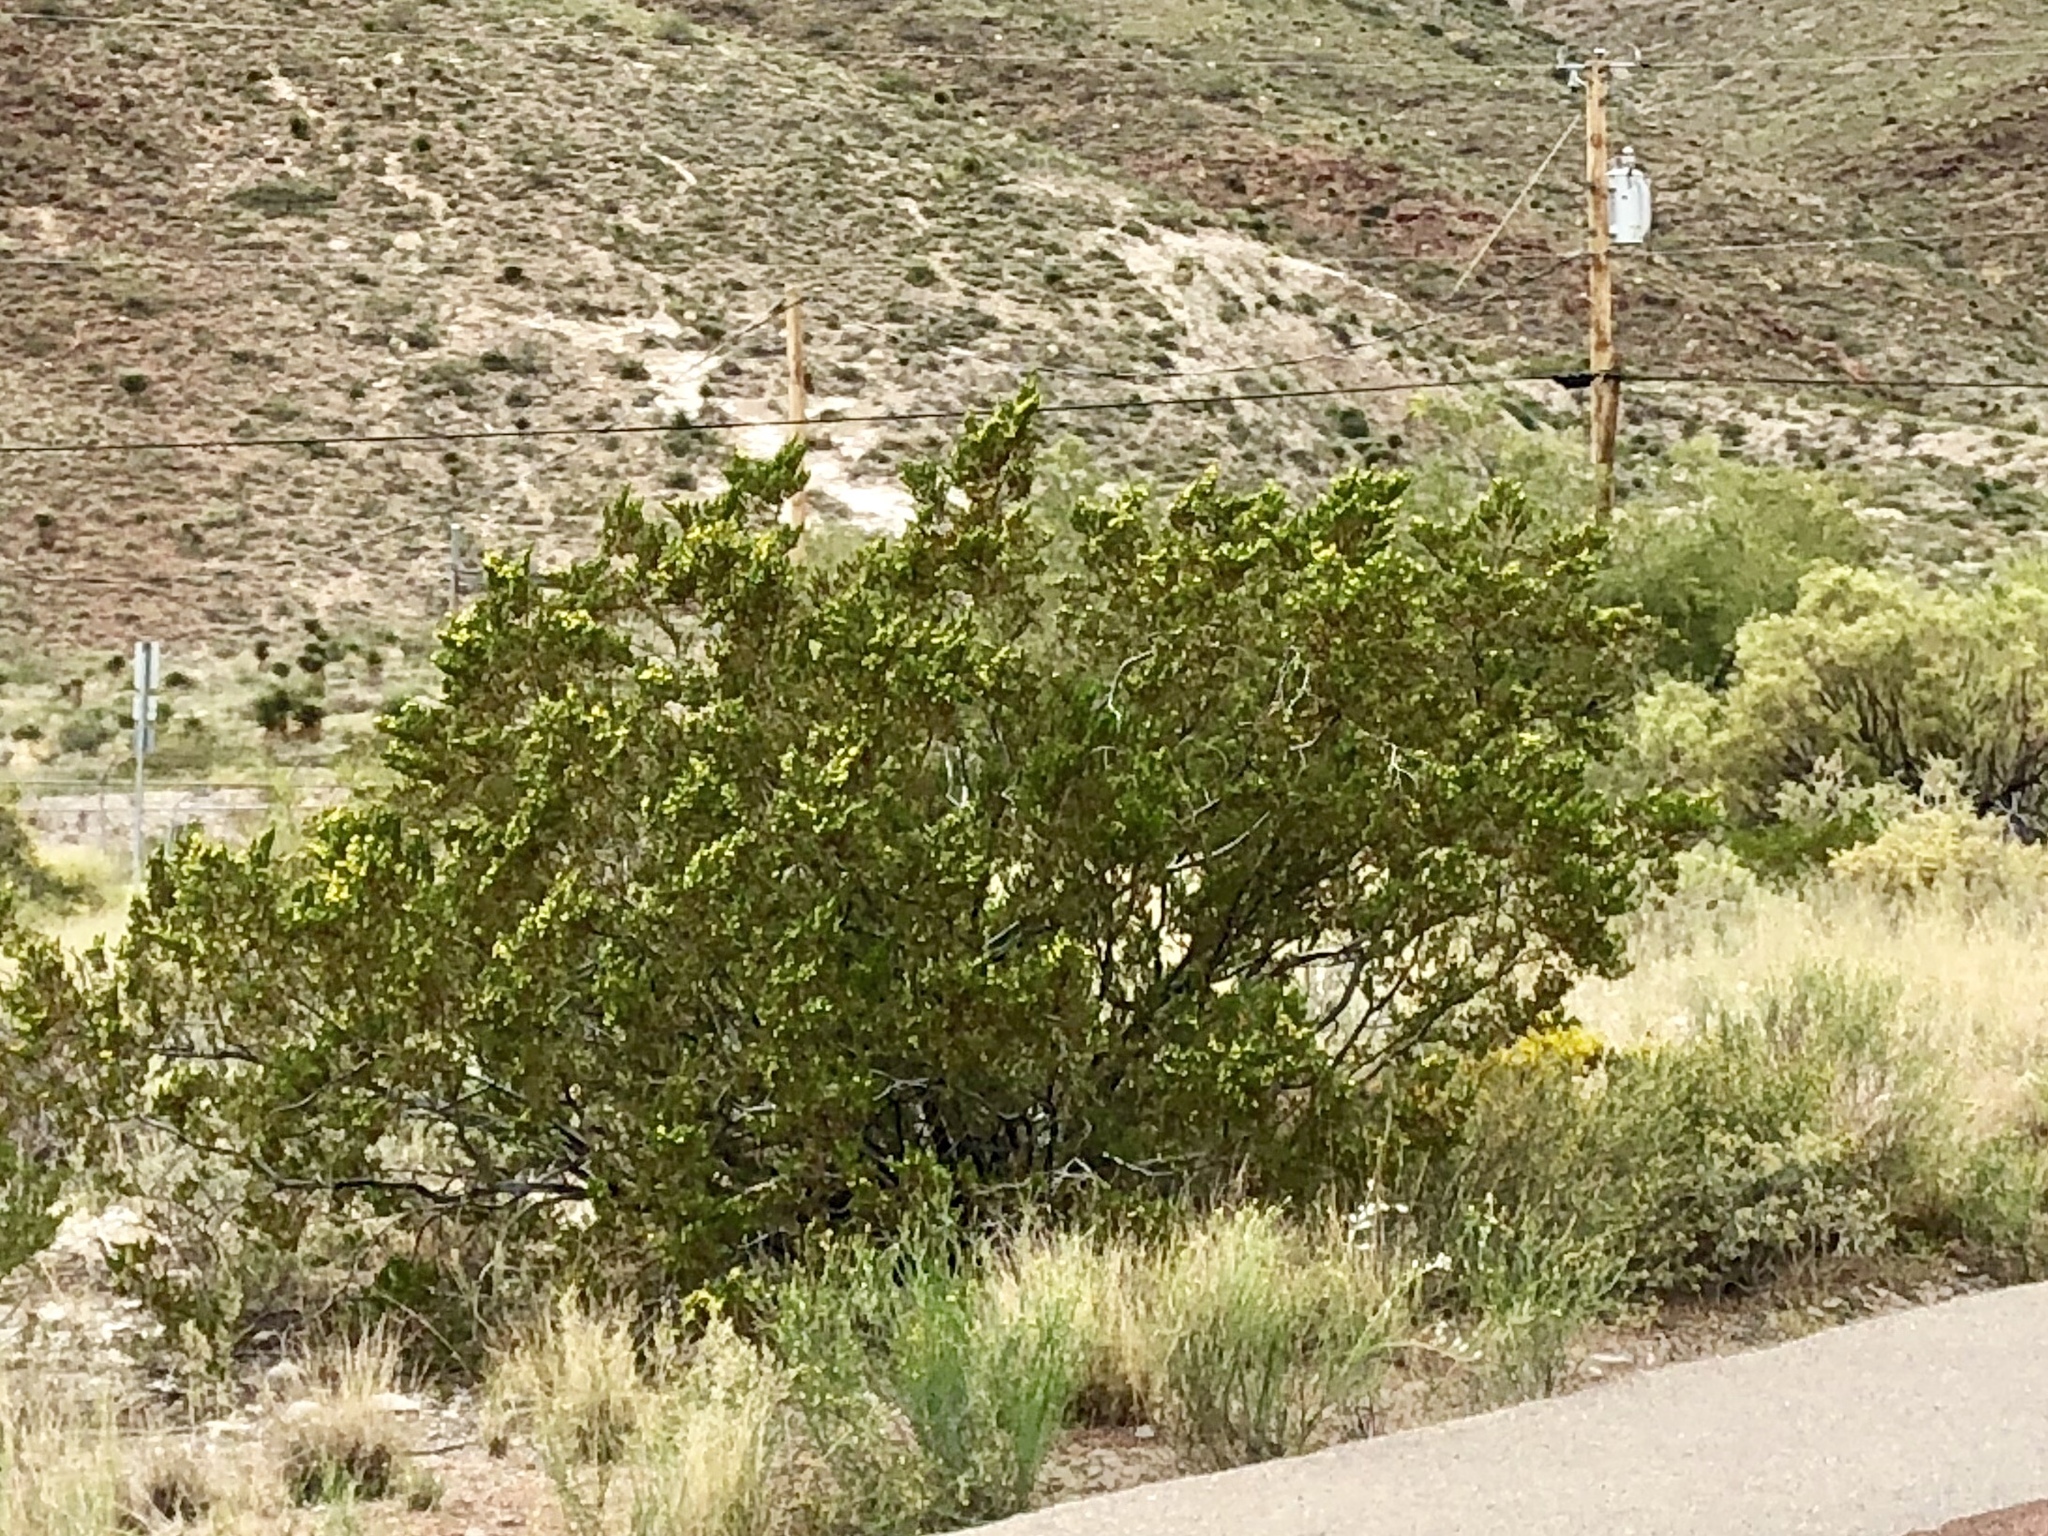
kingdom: Plantae
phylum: Tracheophyta
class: Magnoliopsida
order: Zygophyllales
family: Zygophyllaceae
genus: Larrea
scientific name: Larrea tridentata
